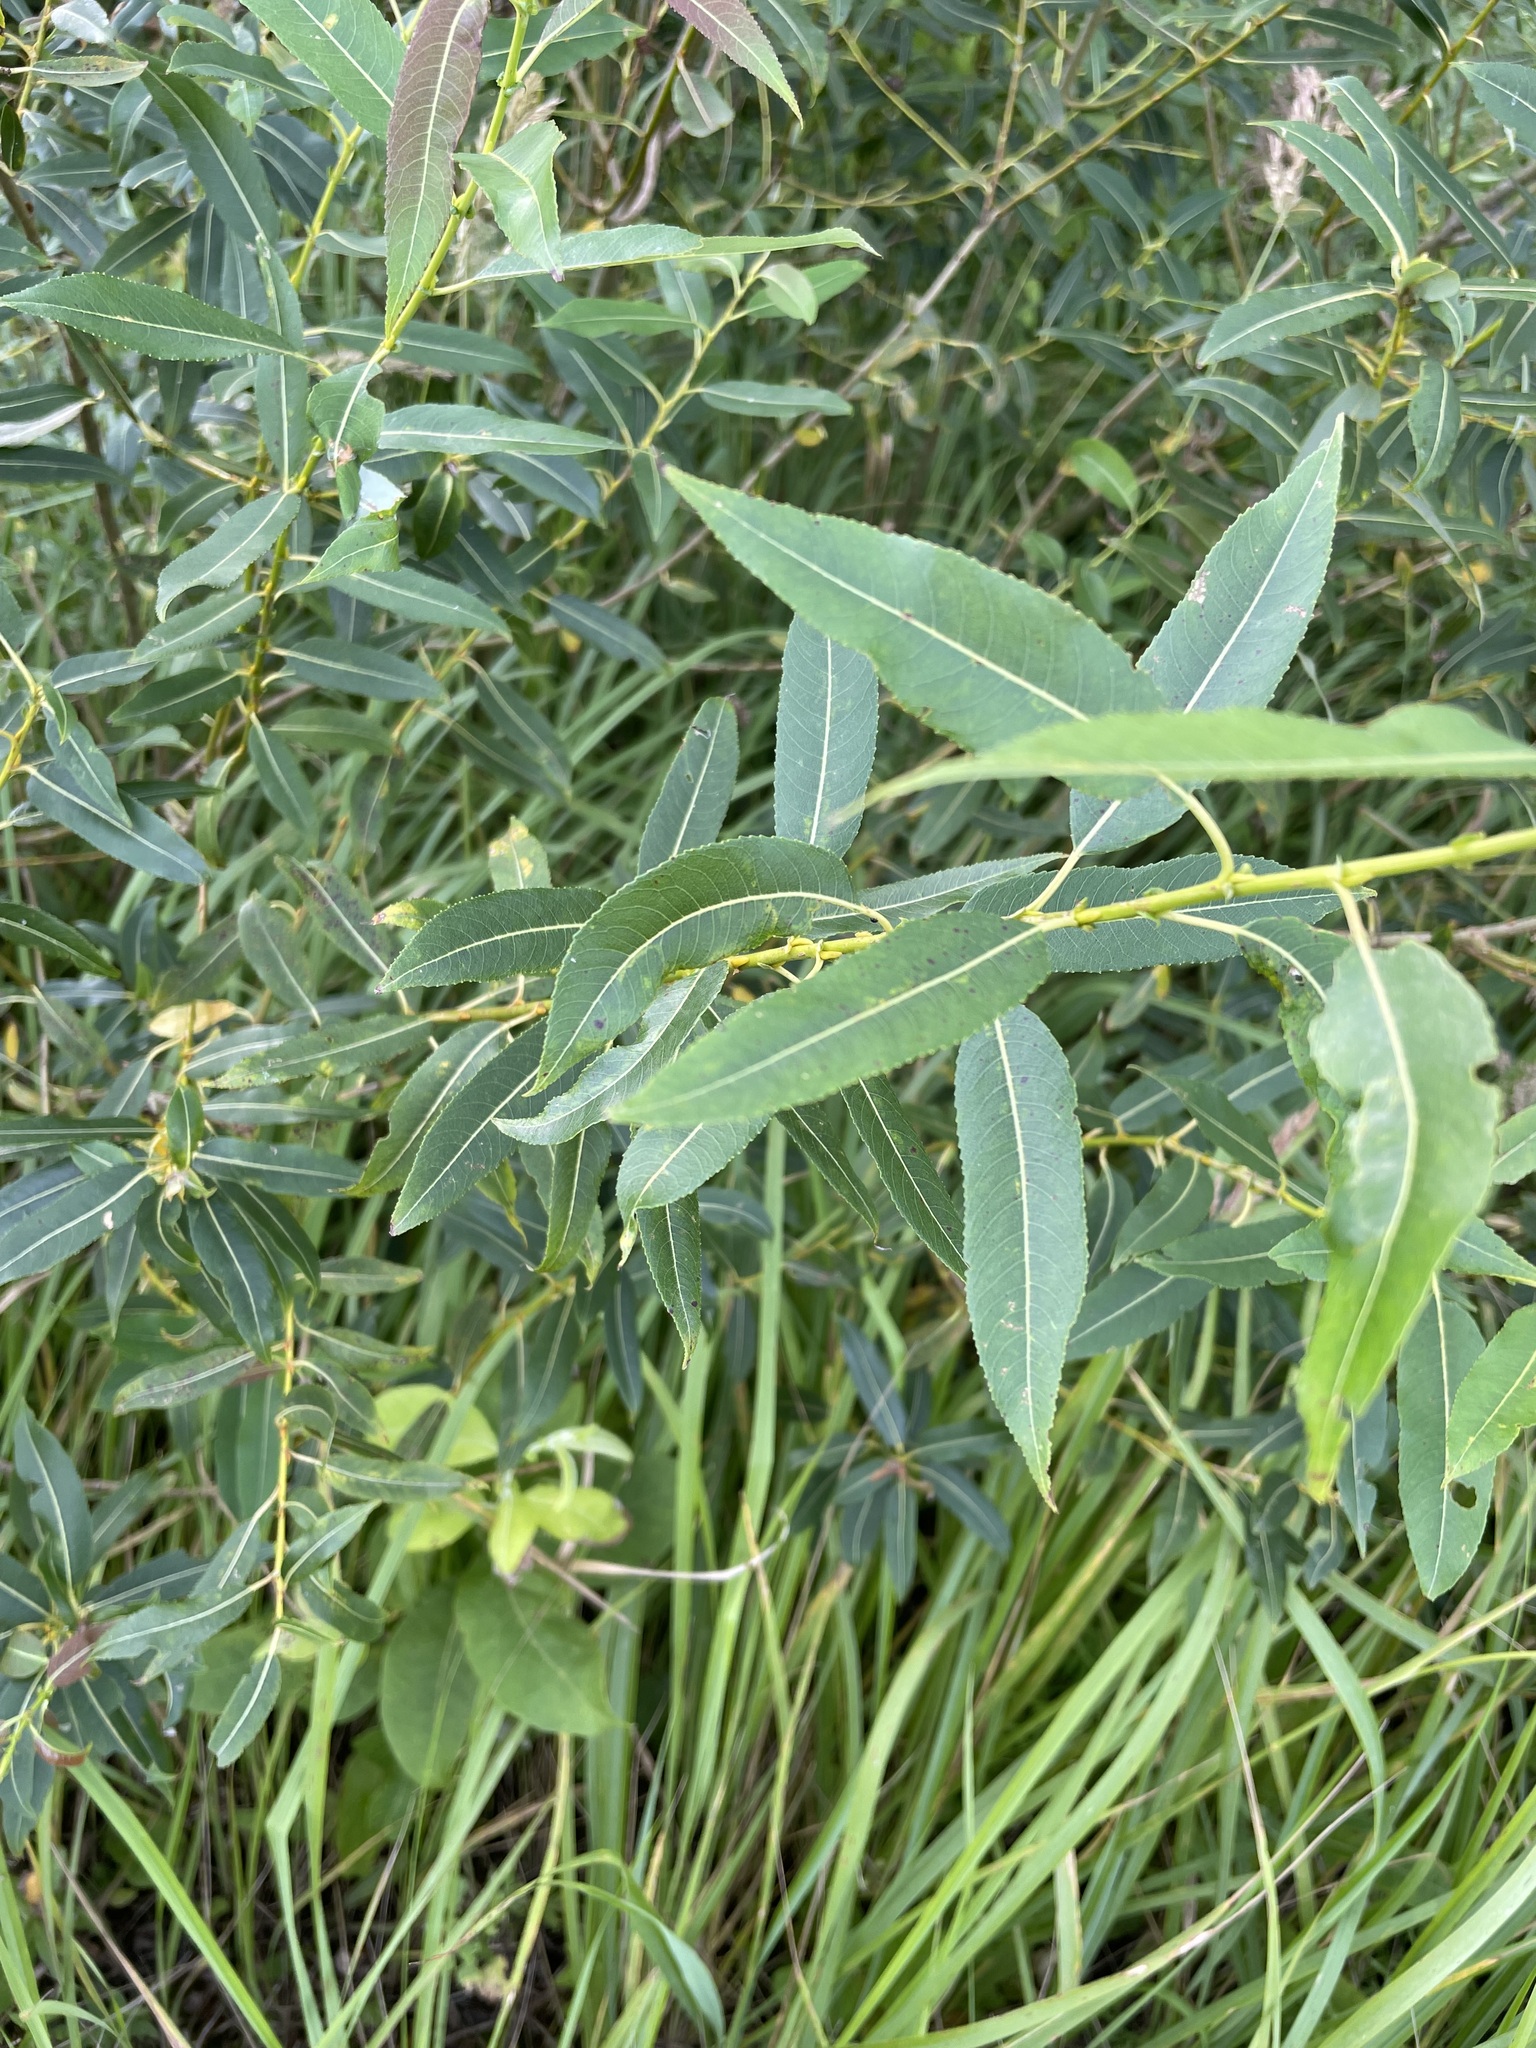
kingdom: Plantae
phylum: Tracheophyta
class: Magnoliopsida
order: Malpighiales
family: Salicaceae
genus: Salix
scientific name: Salix triandra
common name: Almond willow
